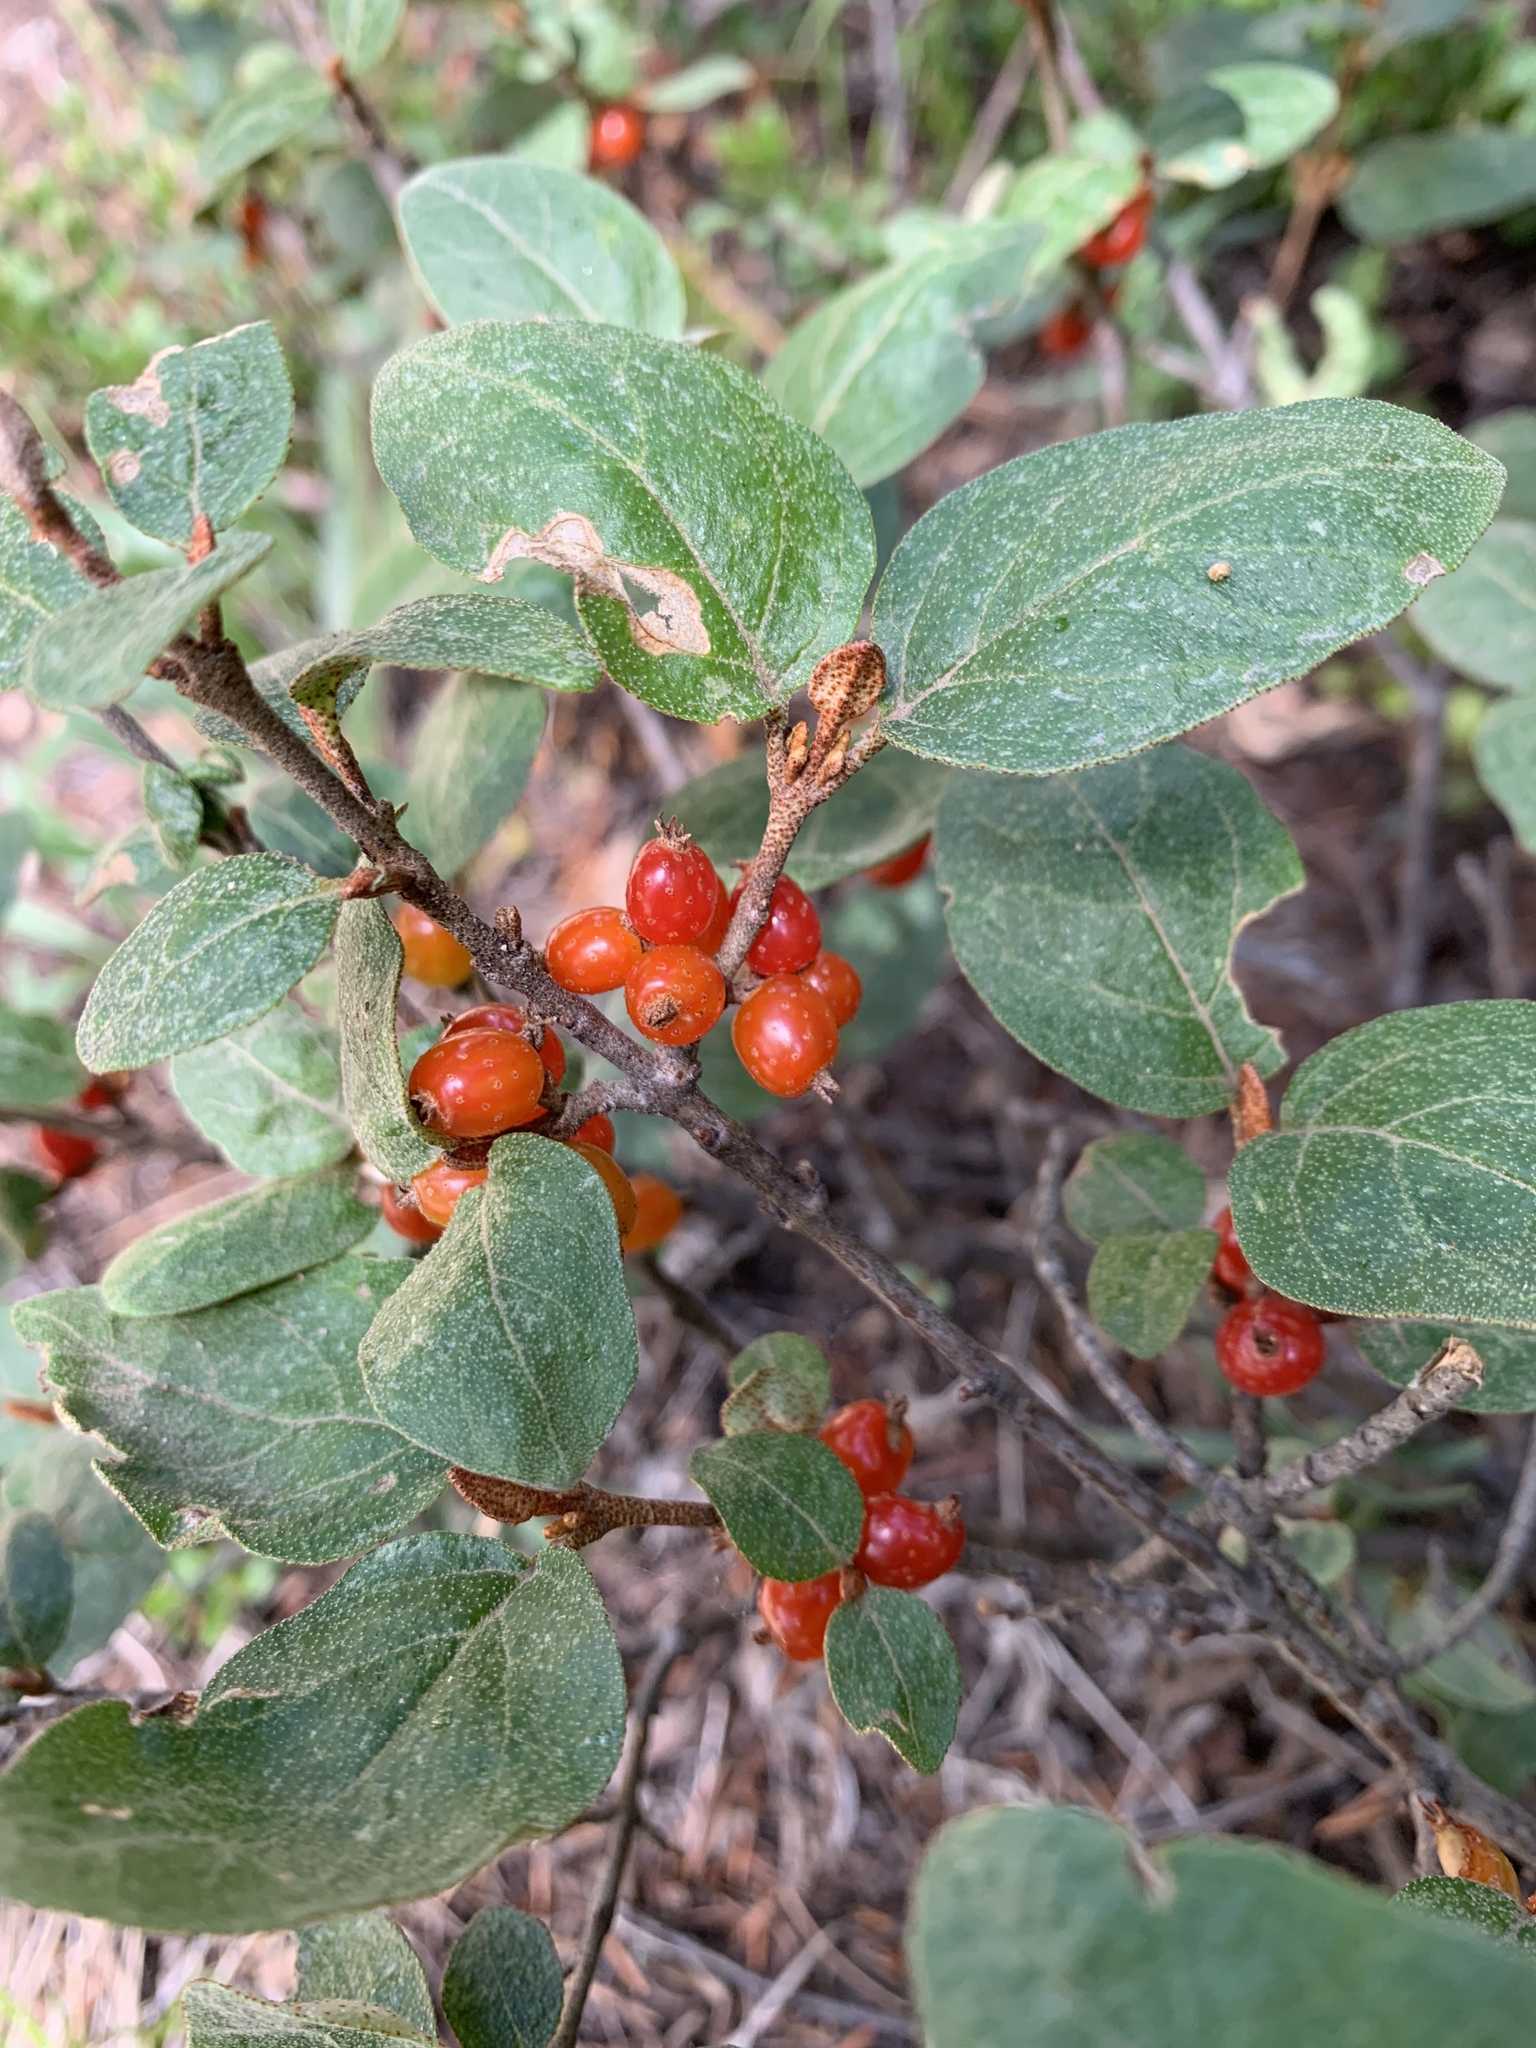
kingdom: Plantae
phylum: Tracheophyta
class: Magnoliopsida
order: Rosales
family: Elaeagnaceae
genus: Shepherdia
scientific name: Shepherdia canadensis
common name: Soapberry
